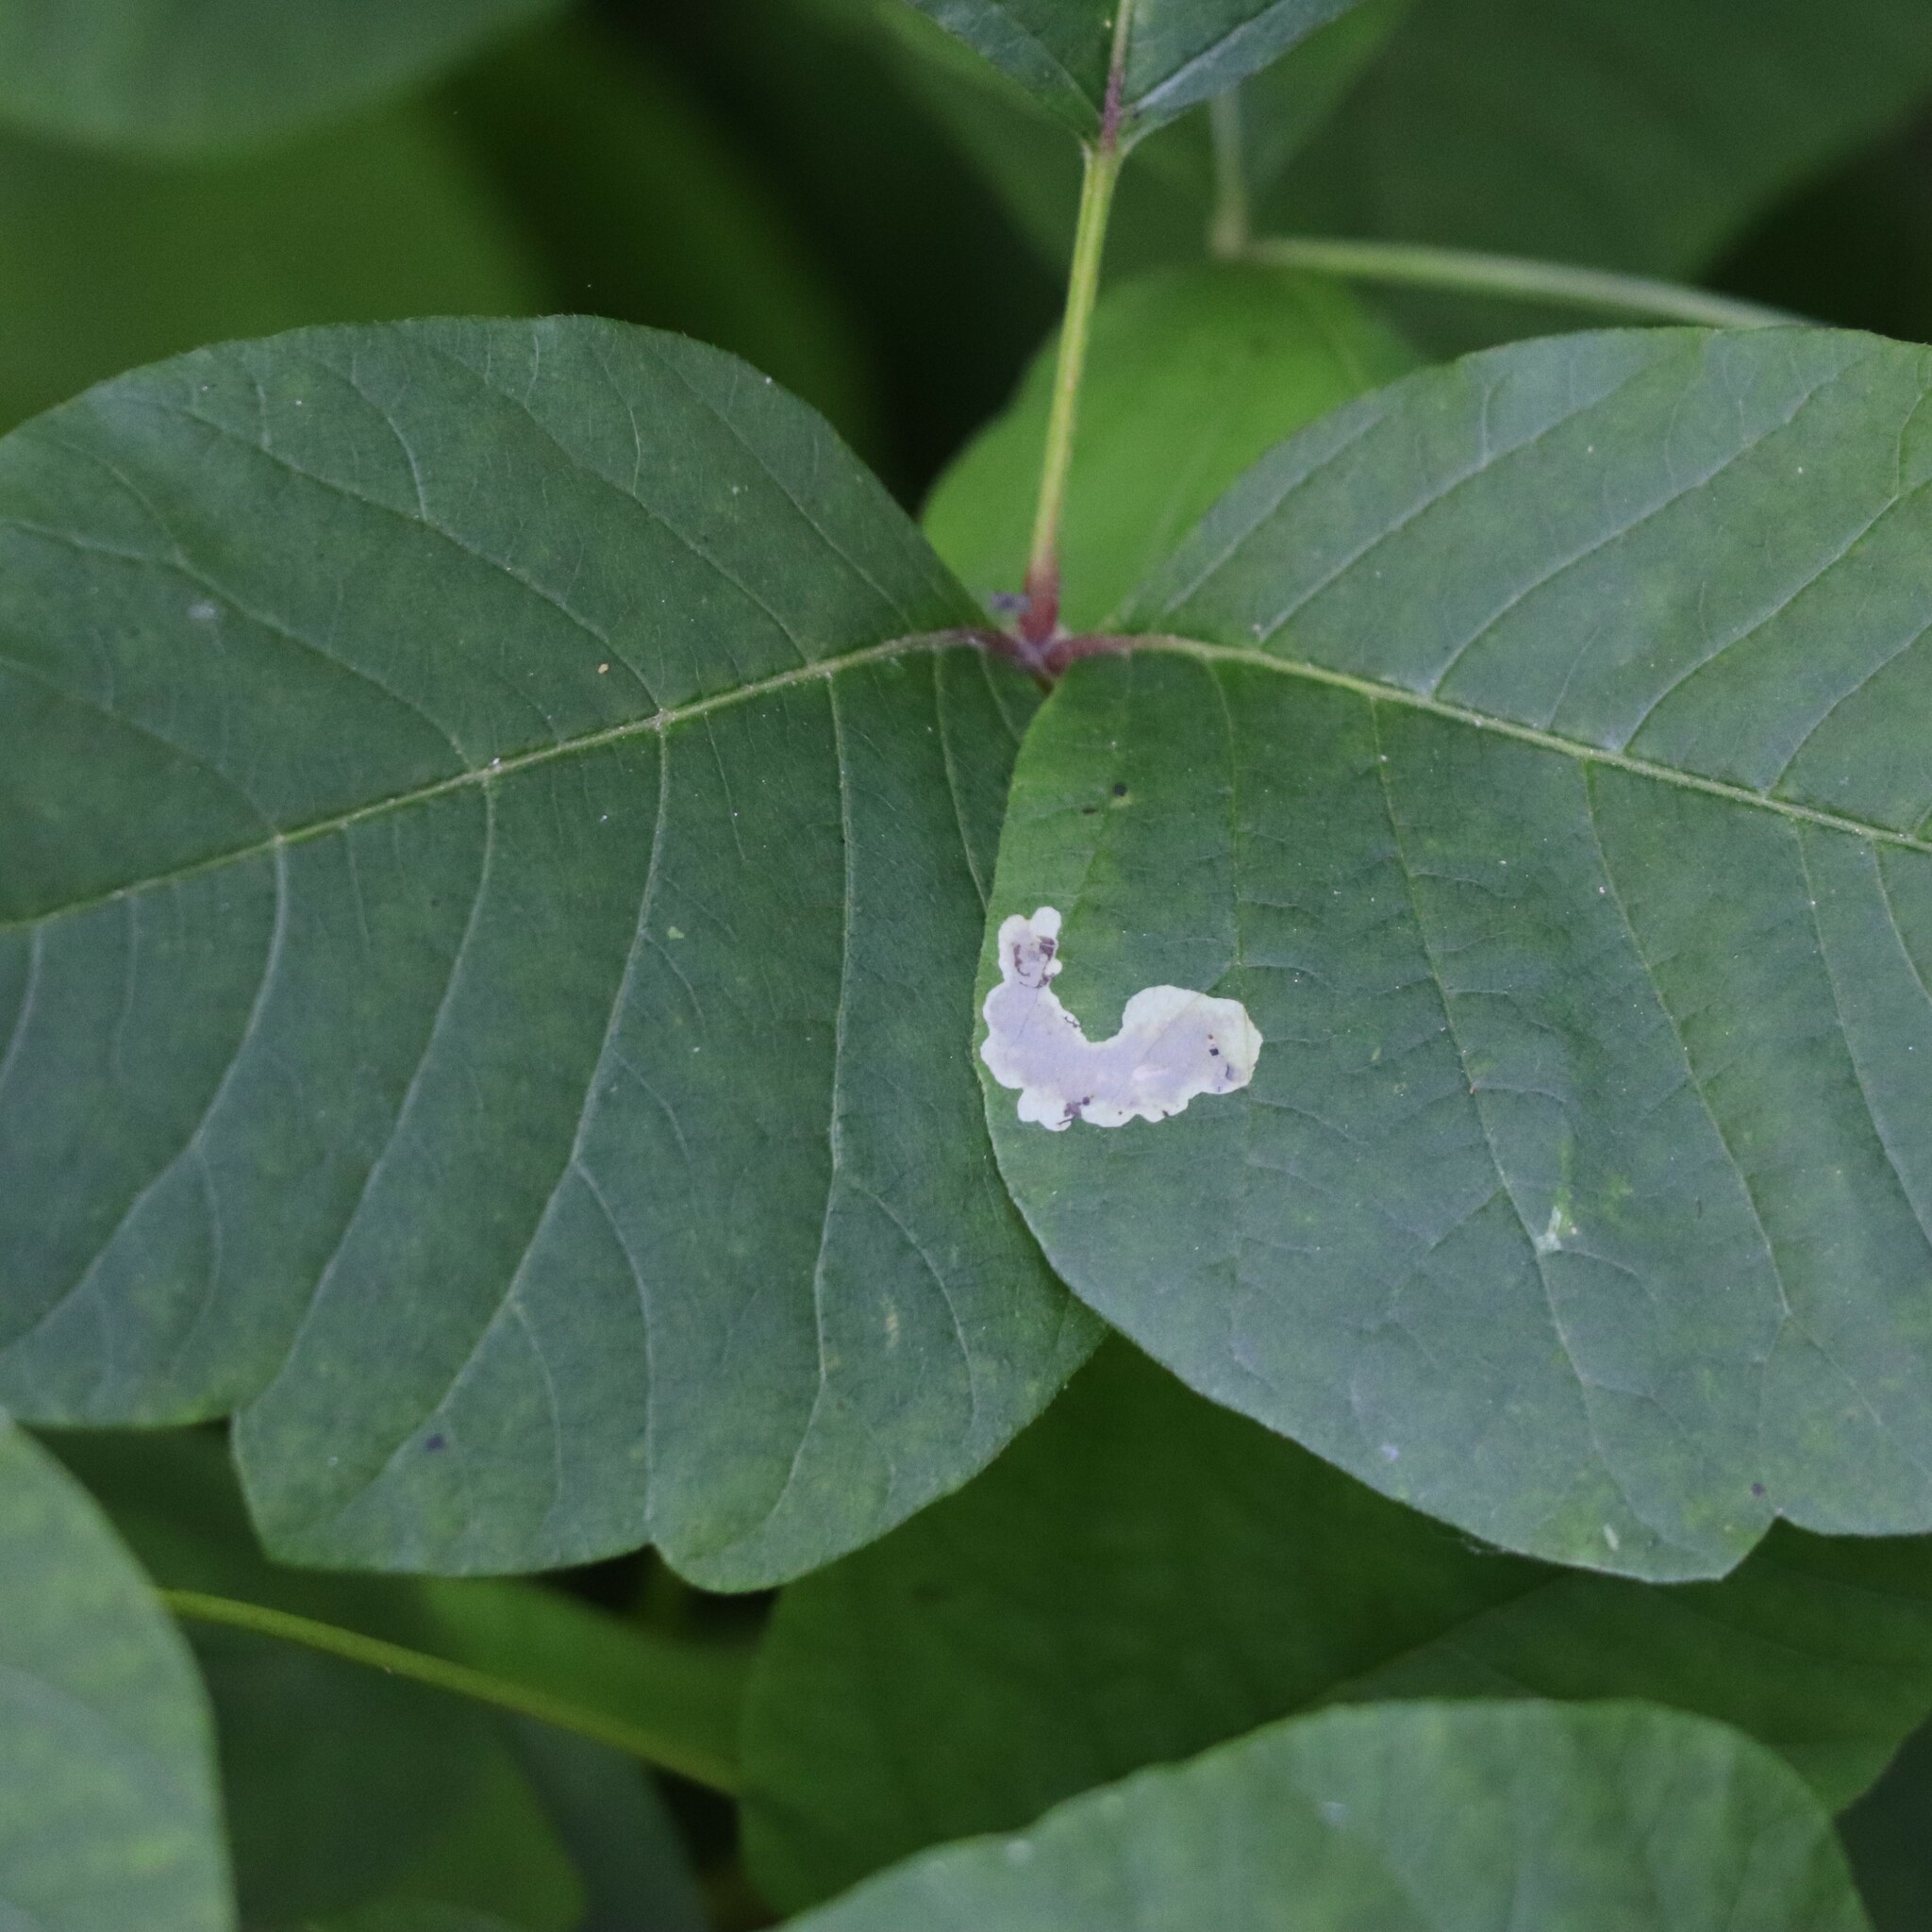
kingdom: Animalia
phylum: Arthropoda
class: Insecta
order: Lepidoptera
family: Gracillariidae
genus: Cameraria
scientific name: Cameraria guttifinitella
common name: Poison ivy leaf-miner moth
